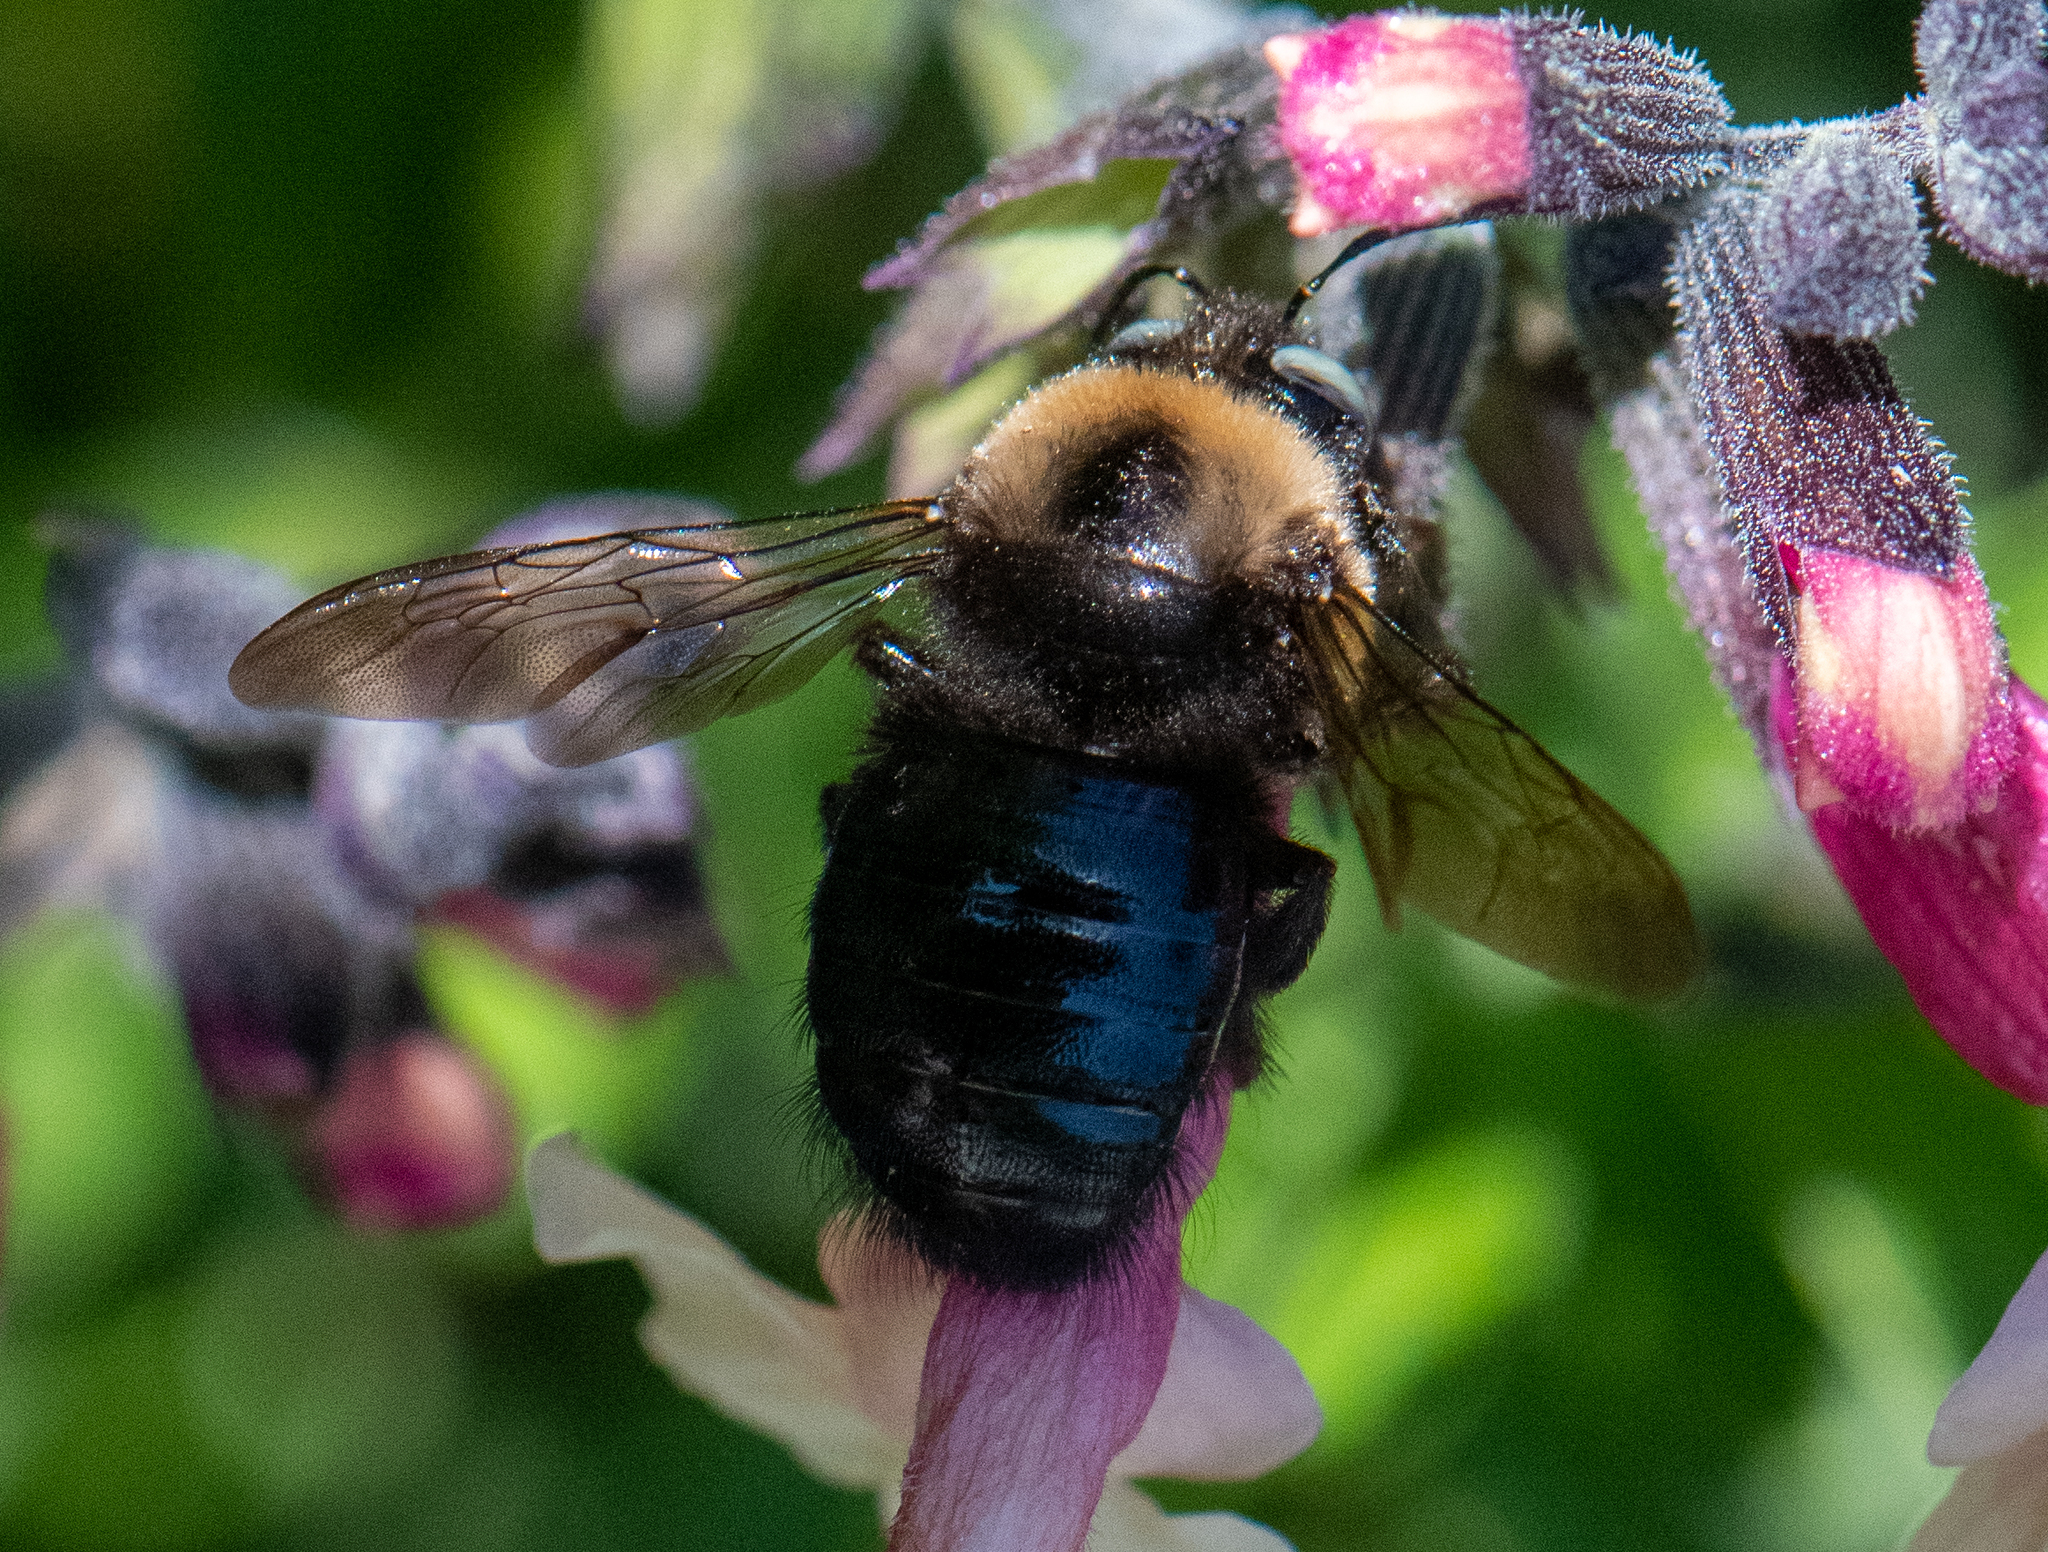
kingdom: Animalia
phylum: Arthropoda
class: Insecta
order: Hymenoptera
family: Apidae
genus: Xylocopa
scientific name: Xylocopa tabaniformis
